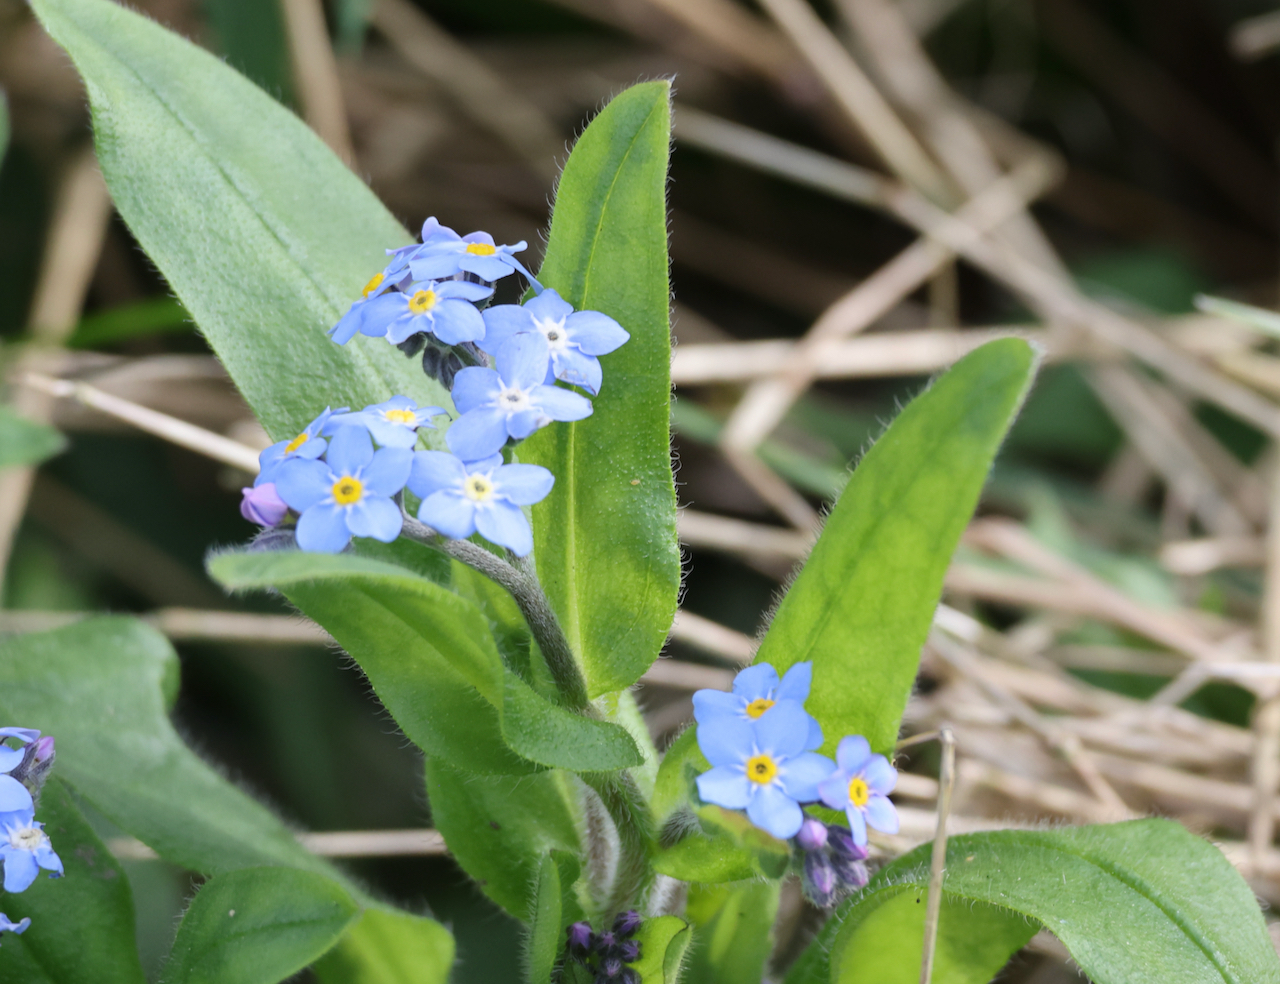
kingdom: Plantae
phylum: Tracheophyta
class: Magnoliopsida
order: Boraginales
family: Boraginaceae
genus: Myosotis
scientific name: Myosotis sylvatica
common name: Wood forget-me-not
